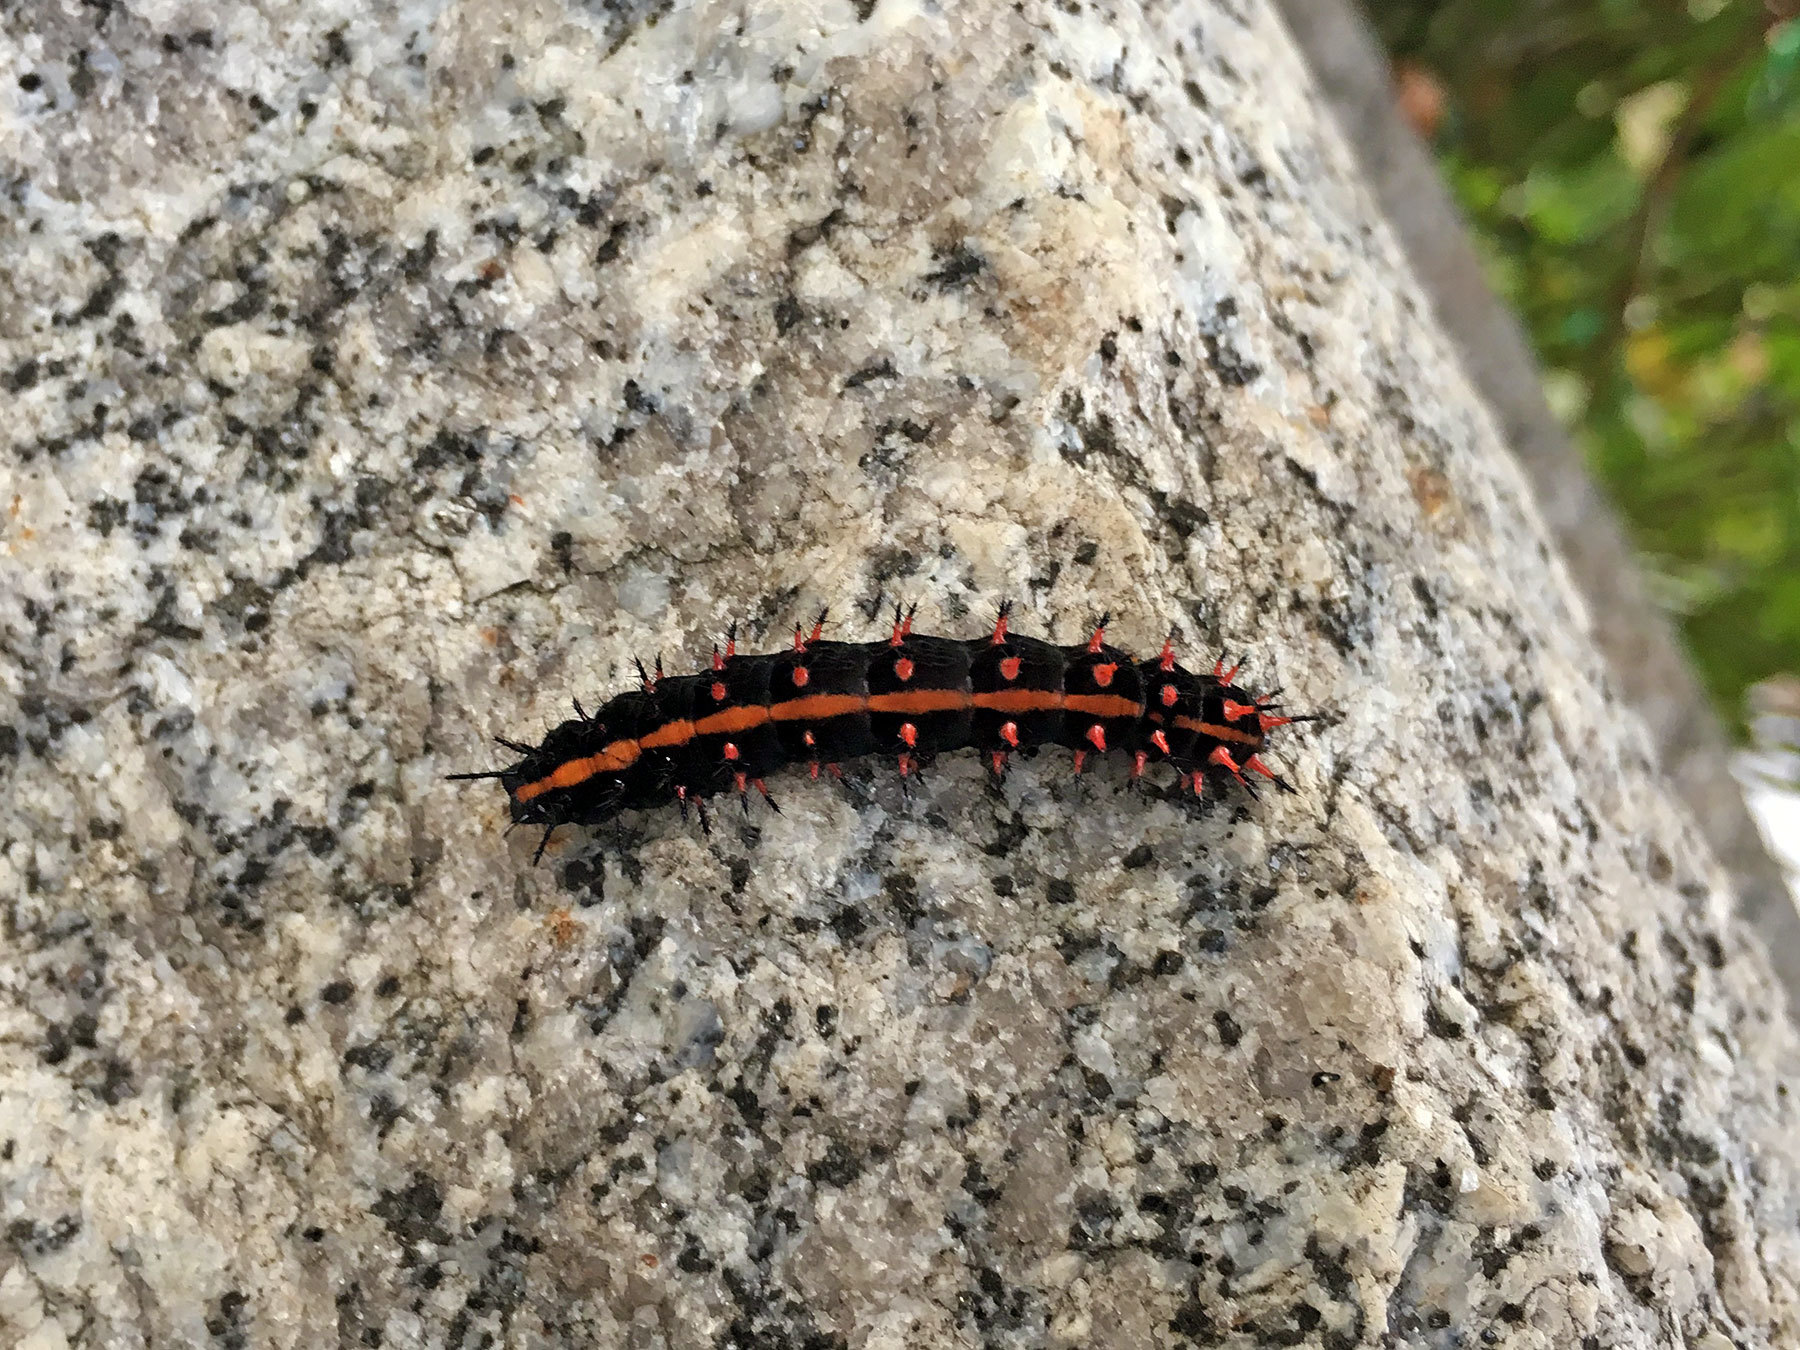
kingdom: Animalia
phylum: Arthropoda
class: Insecta
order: Lepidoptera
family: Nymphalidae
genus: Argynnis
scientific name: Argynnis hyperbius
